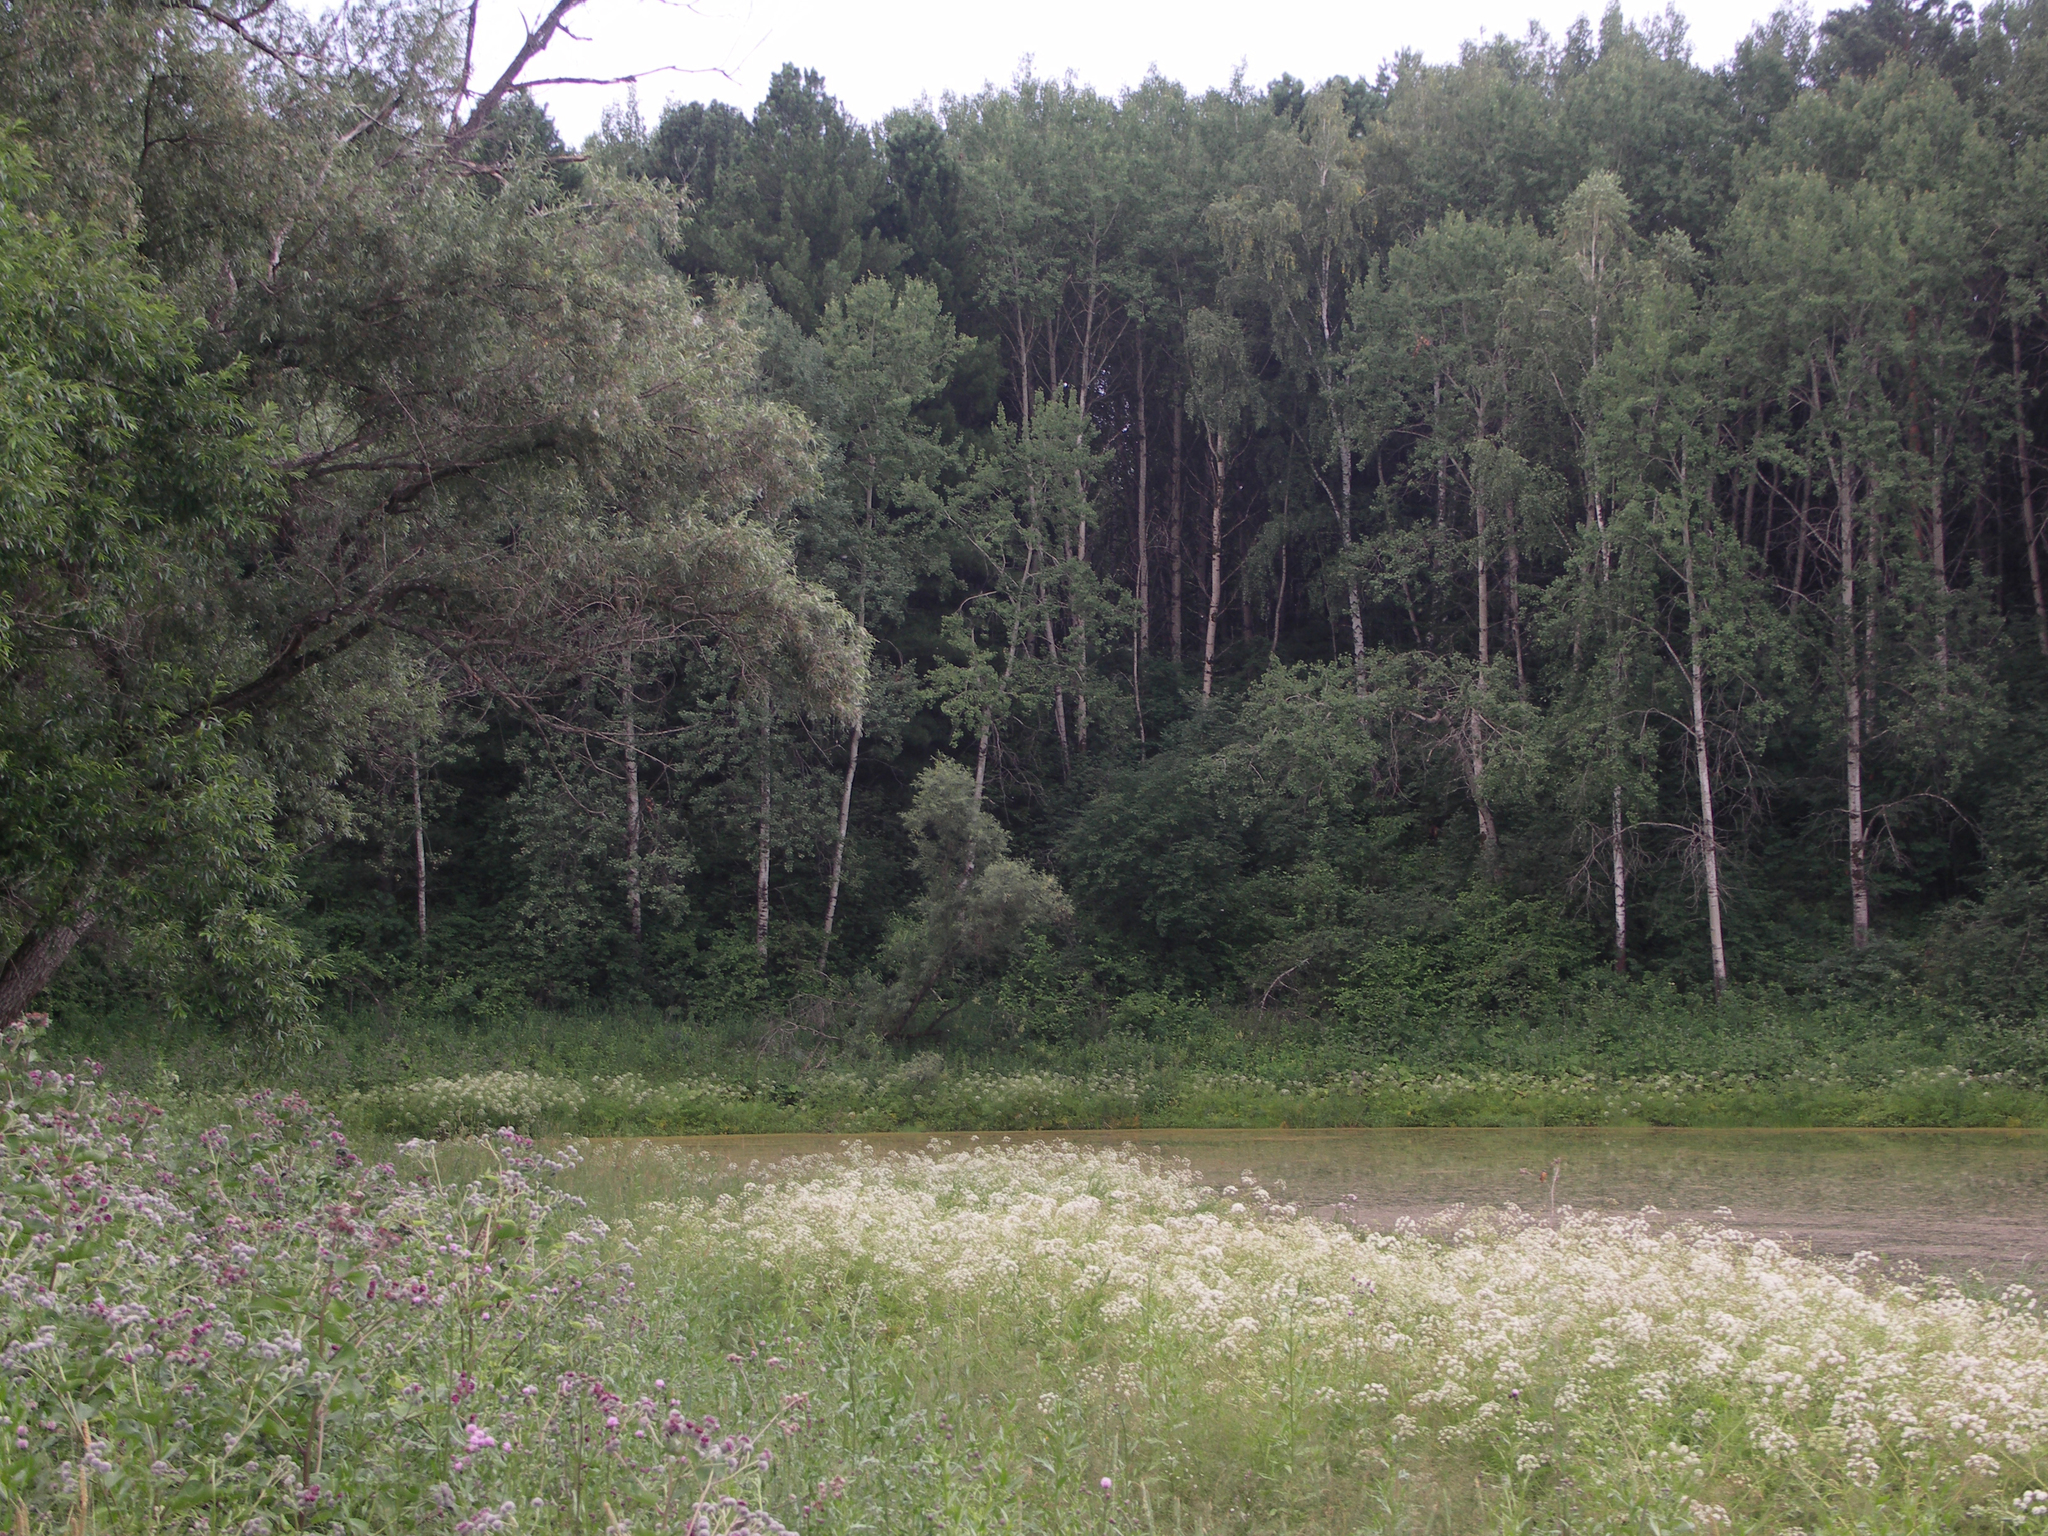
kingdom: Plantae
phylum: Tracheophyta
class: Magnoliopsida
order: Malpighiales
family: Salicaceae
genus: Populus
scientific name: Populus tremula
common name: European aspen
